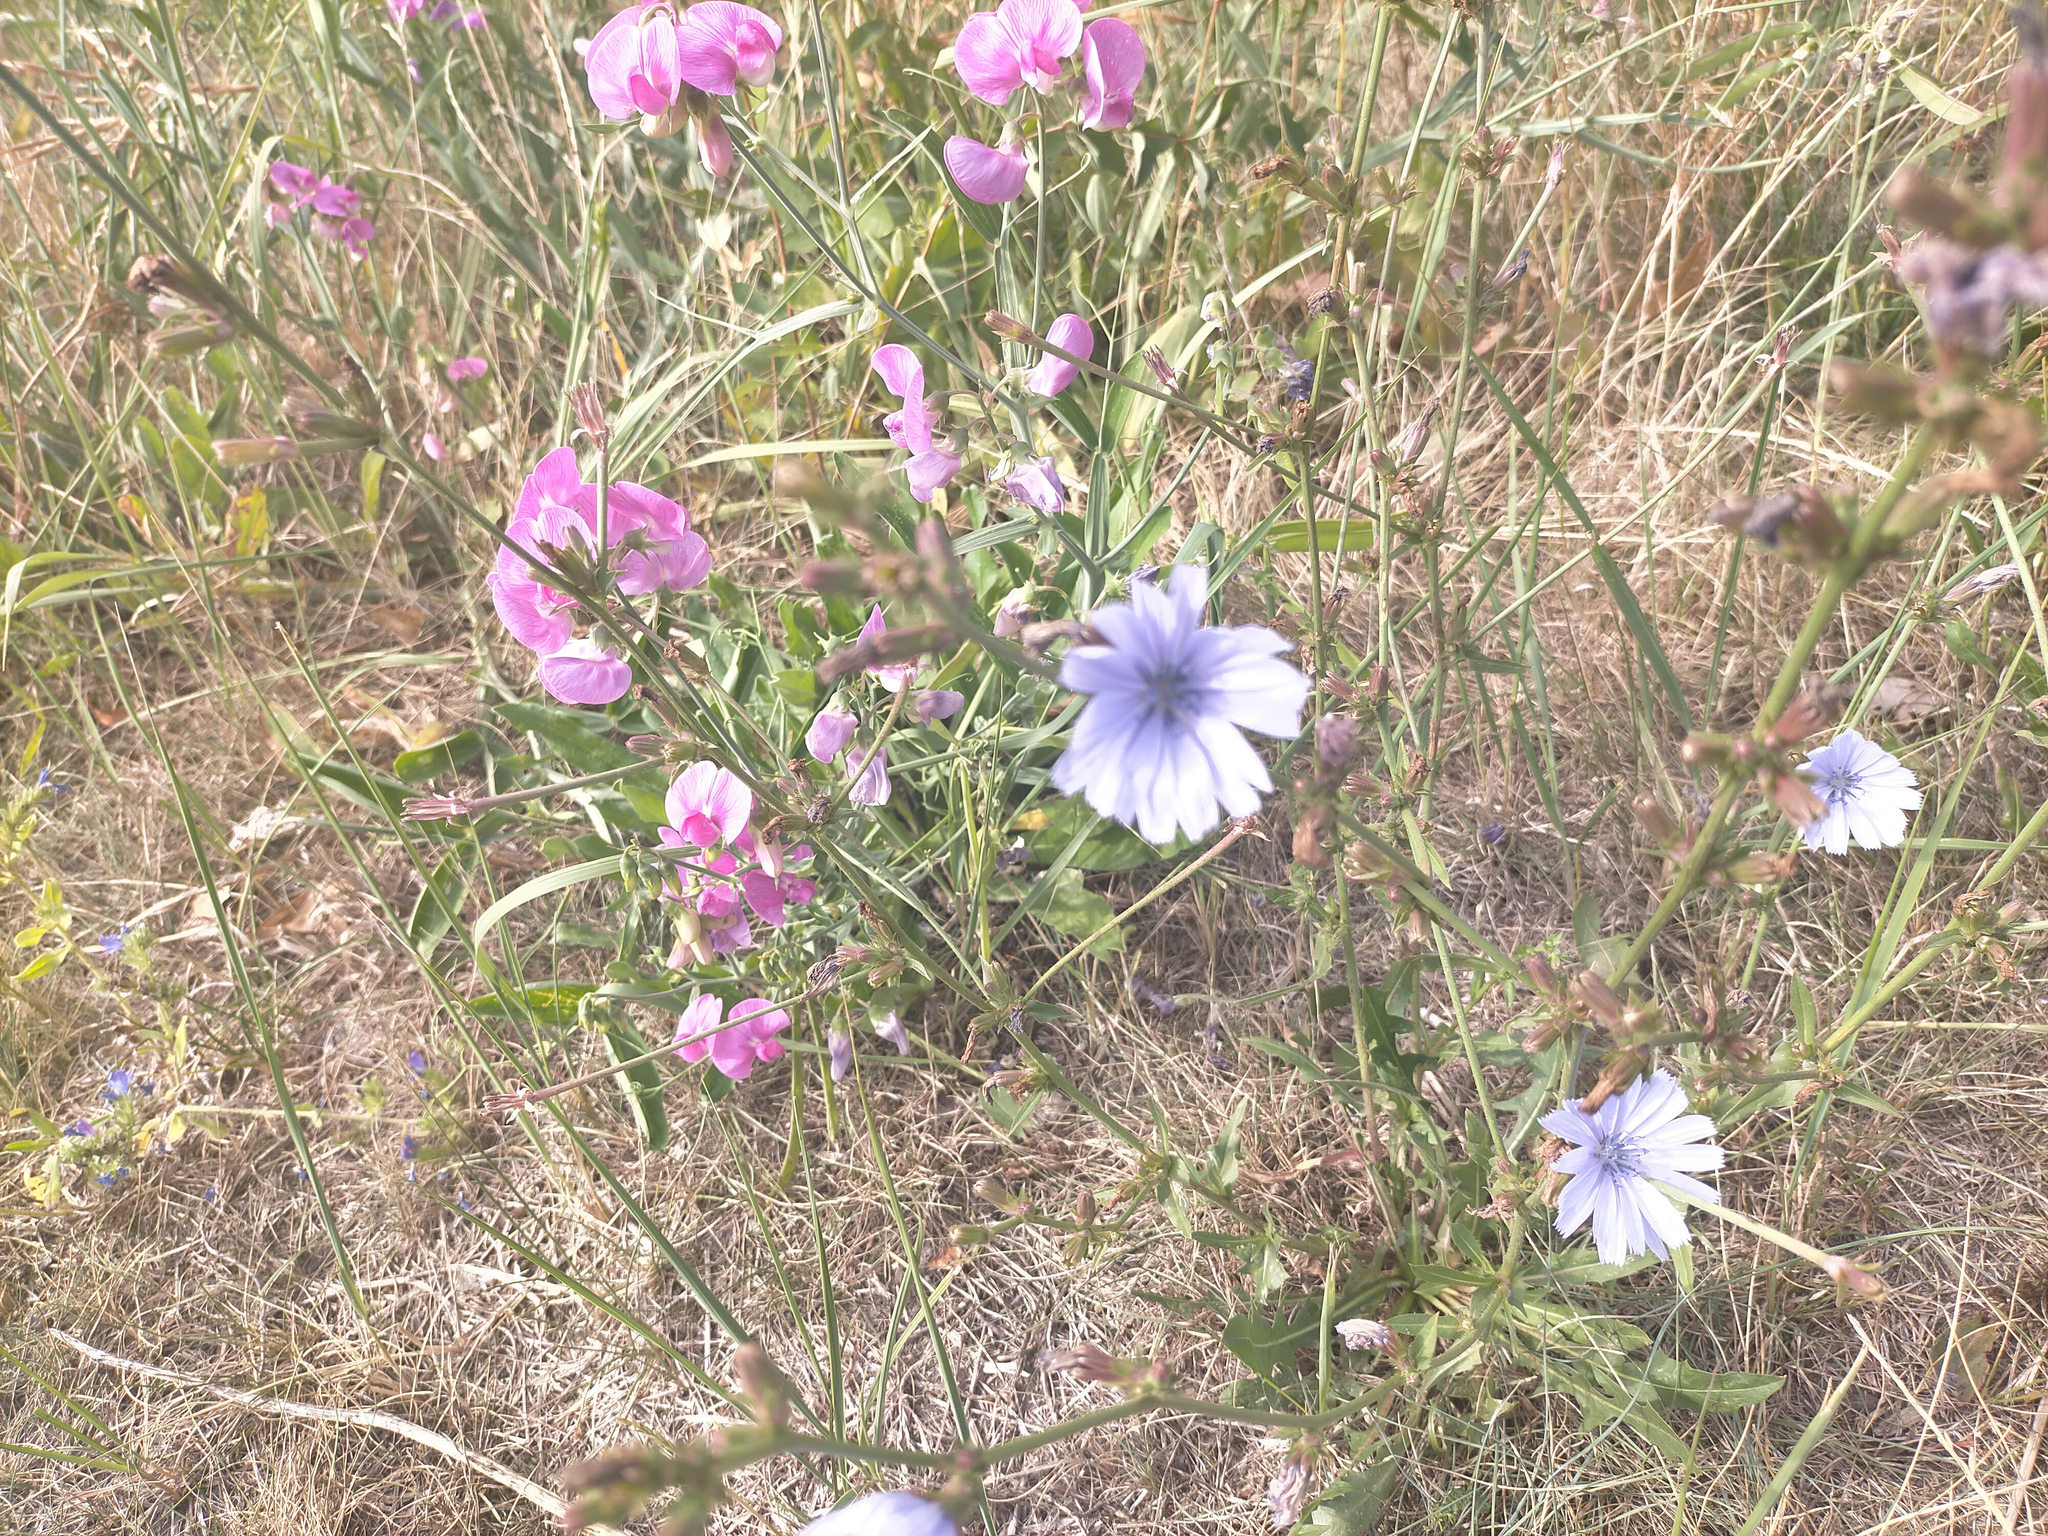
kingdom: Plantae
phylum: Tracheophyta
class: Magnoliopsida
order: Asterales
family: Asteraceae
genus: Cichorium
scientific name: Cichorium intybus
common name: Chicory
